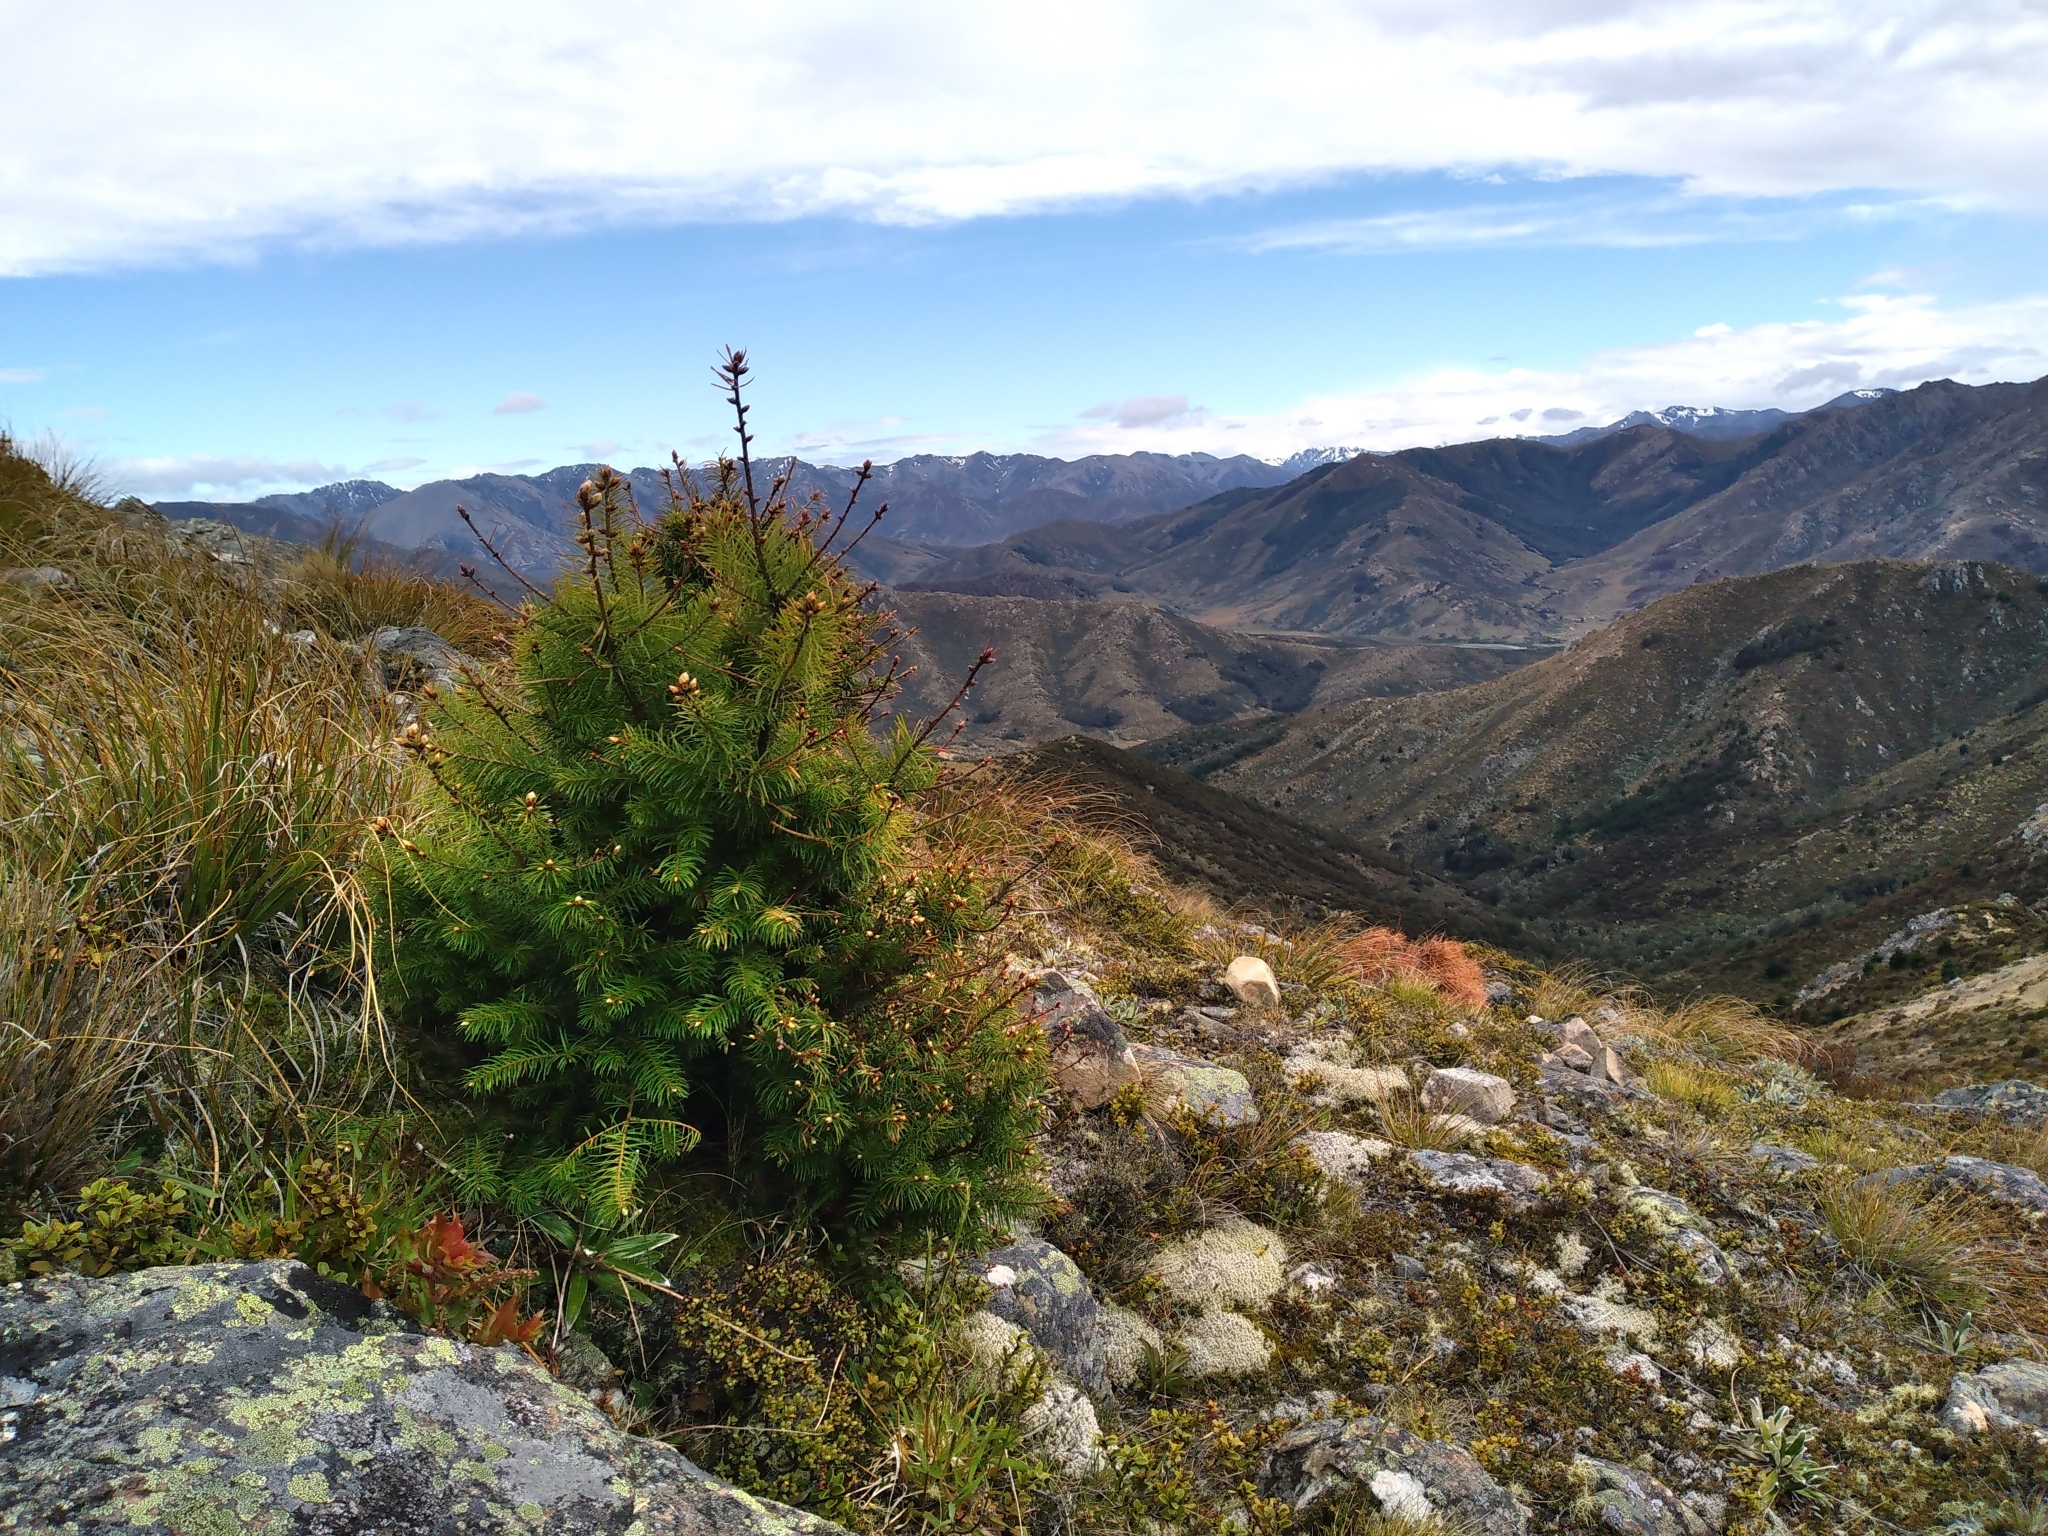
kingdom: Plantae
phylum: Tracheophyta
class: Pinopsida
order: Pinales
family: Pinaceae
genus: Pseudotsuga
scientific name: Pseudotsuga menziesii
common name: Douglas fir
